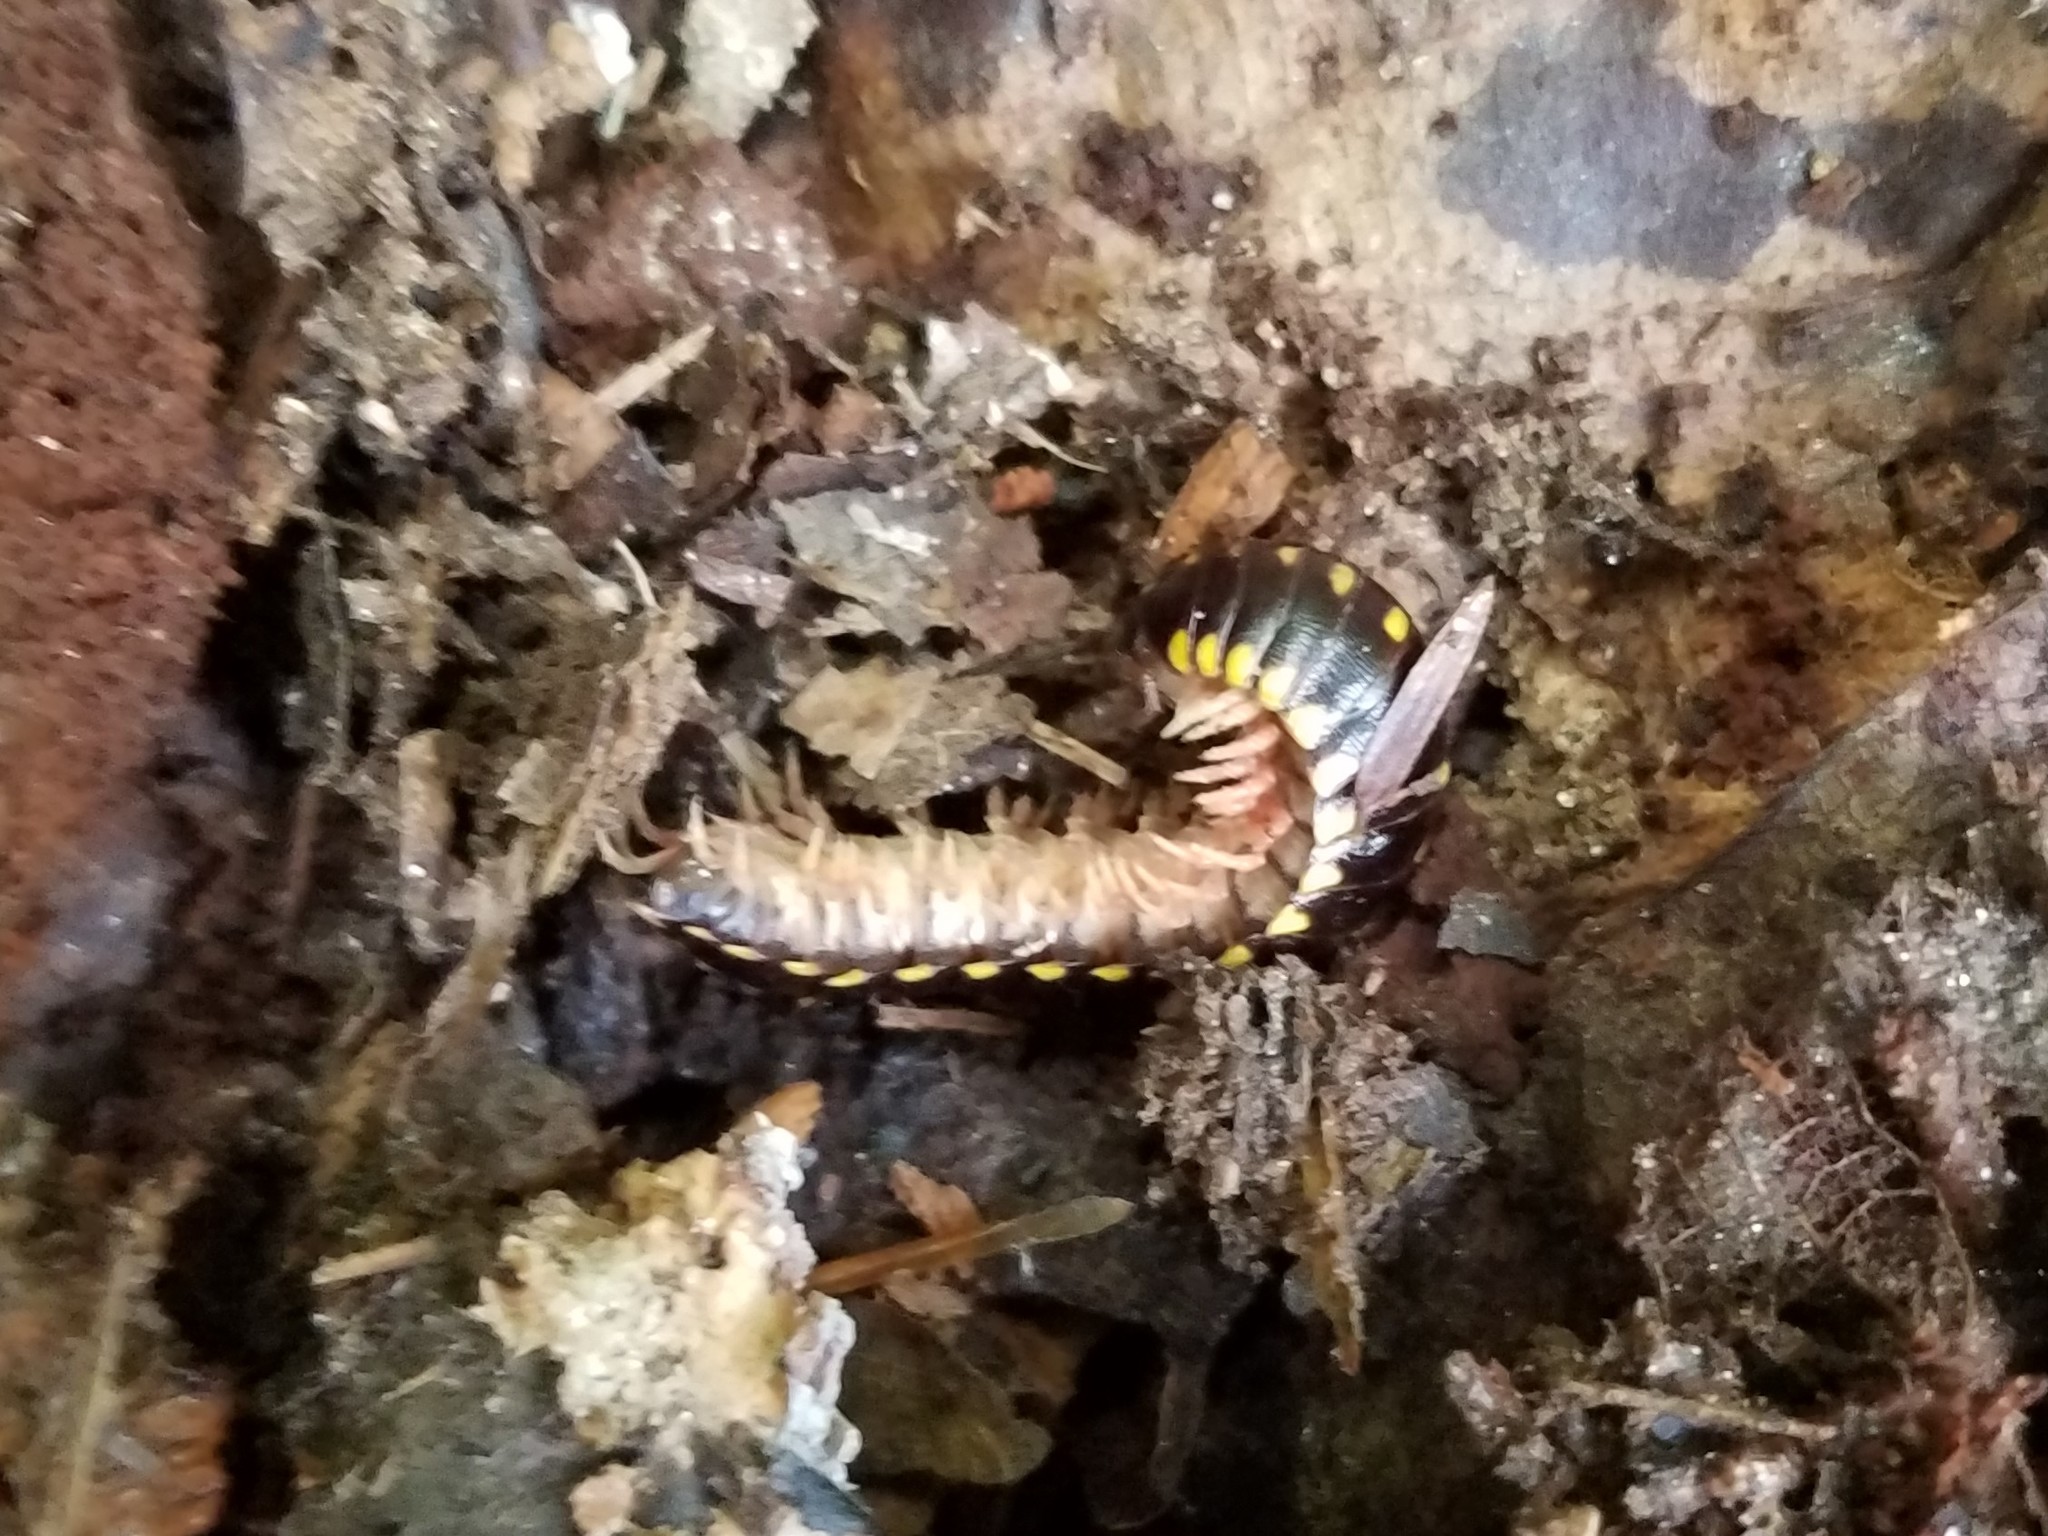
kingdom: Animalia
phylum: Arthropoda
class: Diplopoda
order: Polydesmida
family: Xystodesmidae
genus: Cherokia
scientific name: Cherokia georgiana
